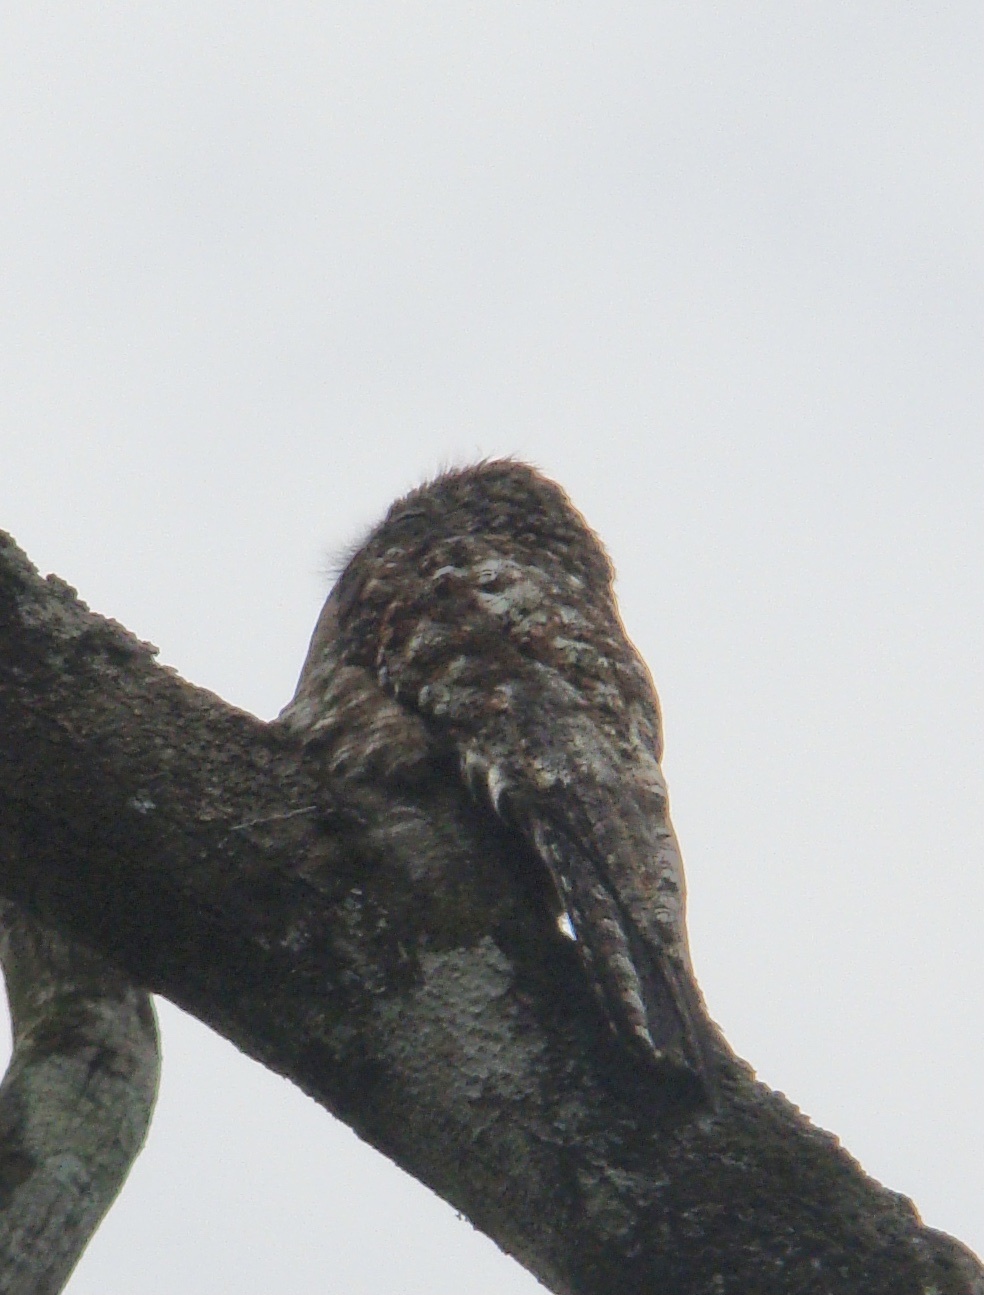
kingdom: Animalia
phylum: Chordata
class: Aves
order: Nyctibiiformes
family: Nyctibiidae
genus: Nyctibius
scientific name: Nyctibius grandis
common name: Great potoo
